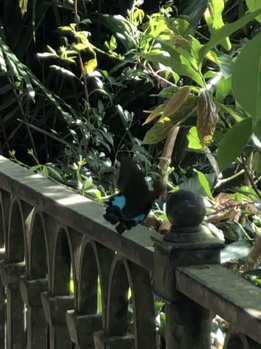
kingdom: Animalia
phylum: Arthropoda
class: Insecta
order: Lepidoptera
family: Papilionidae
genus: Papilio
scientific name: Papilio paris
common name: Paris peacock
